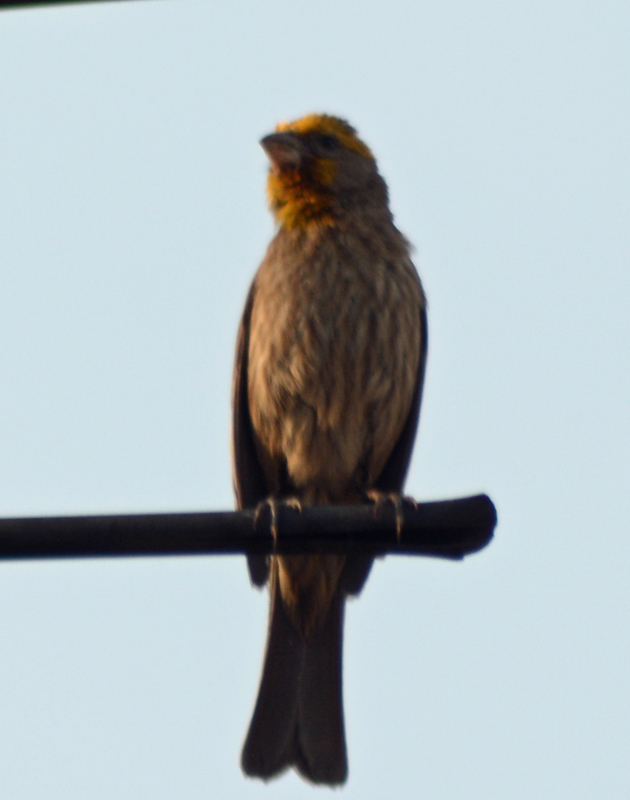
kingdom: Animalia
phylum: Chordata
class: Aves
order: Passeriformes
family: Fringillidae
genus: Haemorhous
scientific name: Haemorhous mexicanus
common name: House finch
